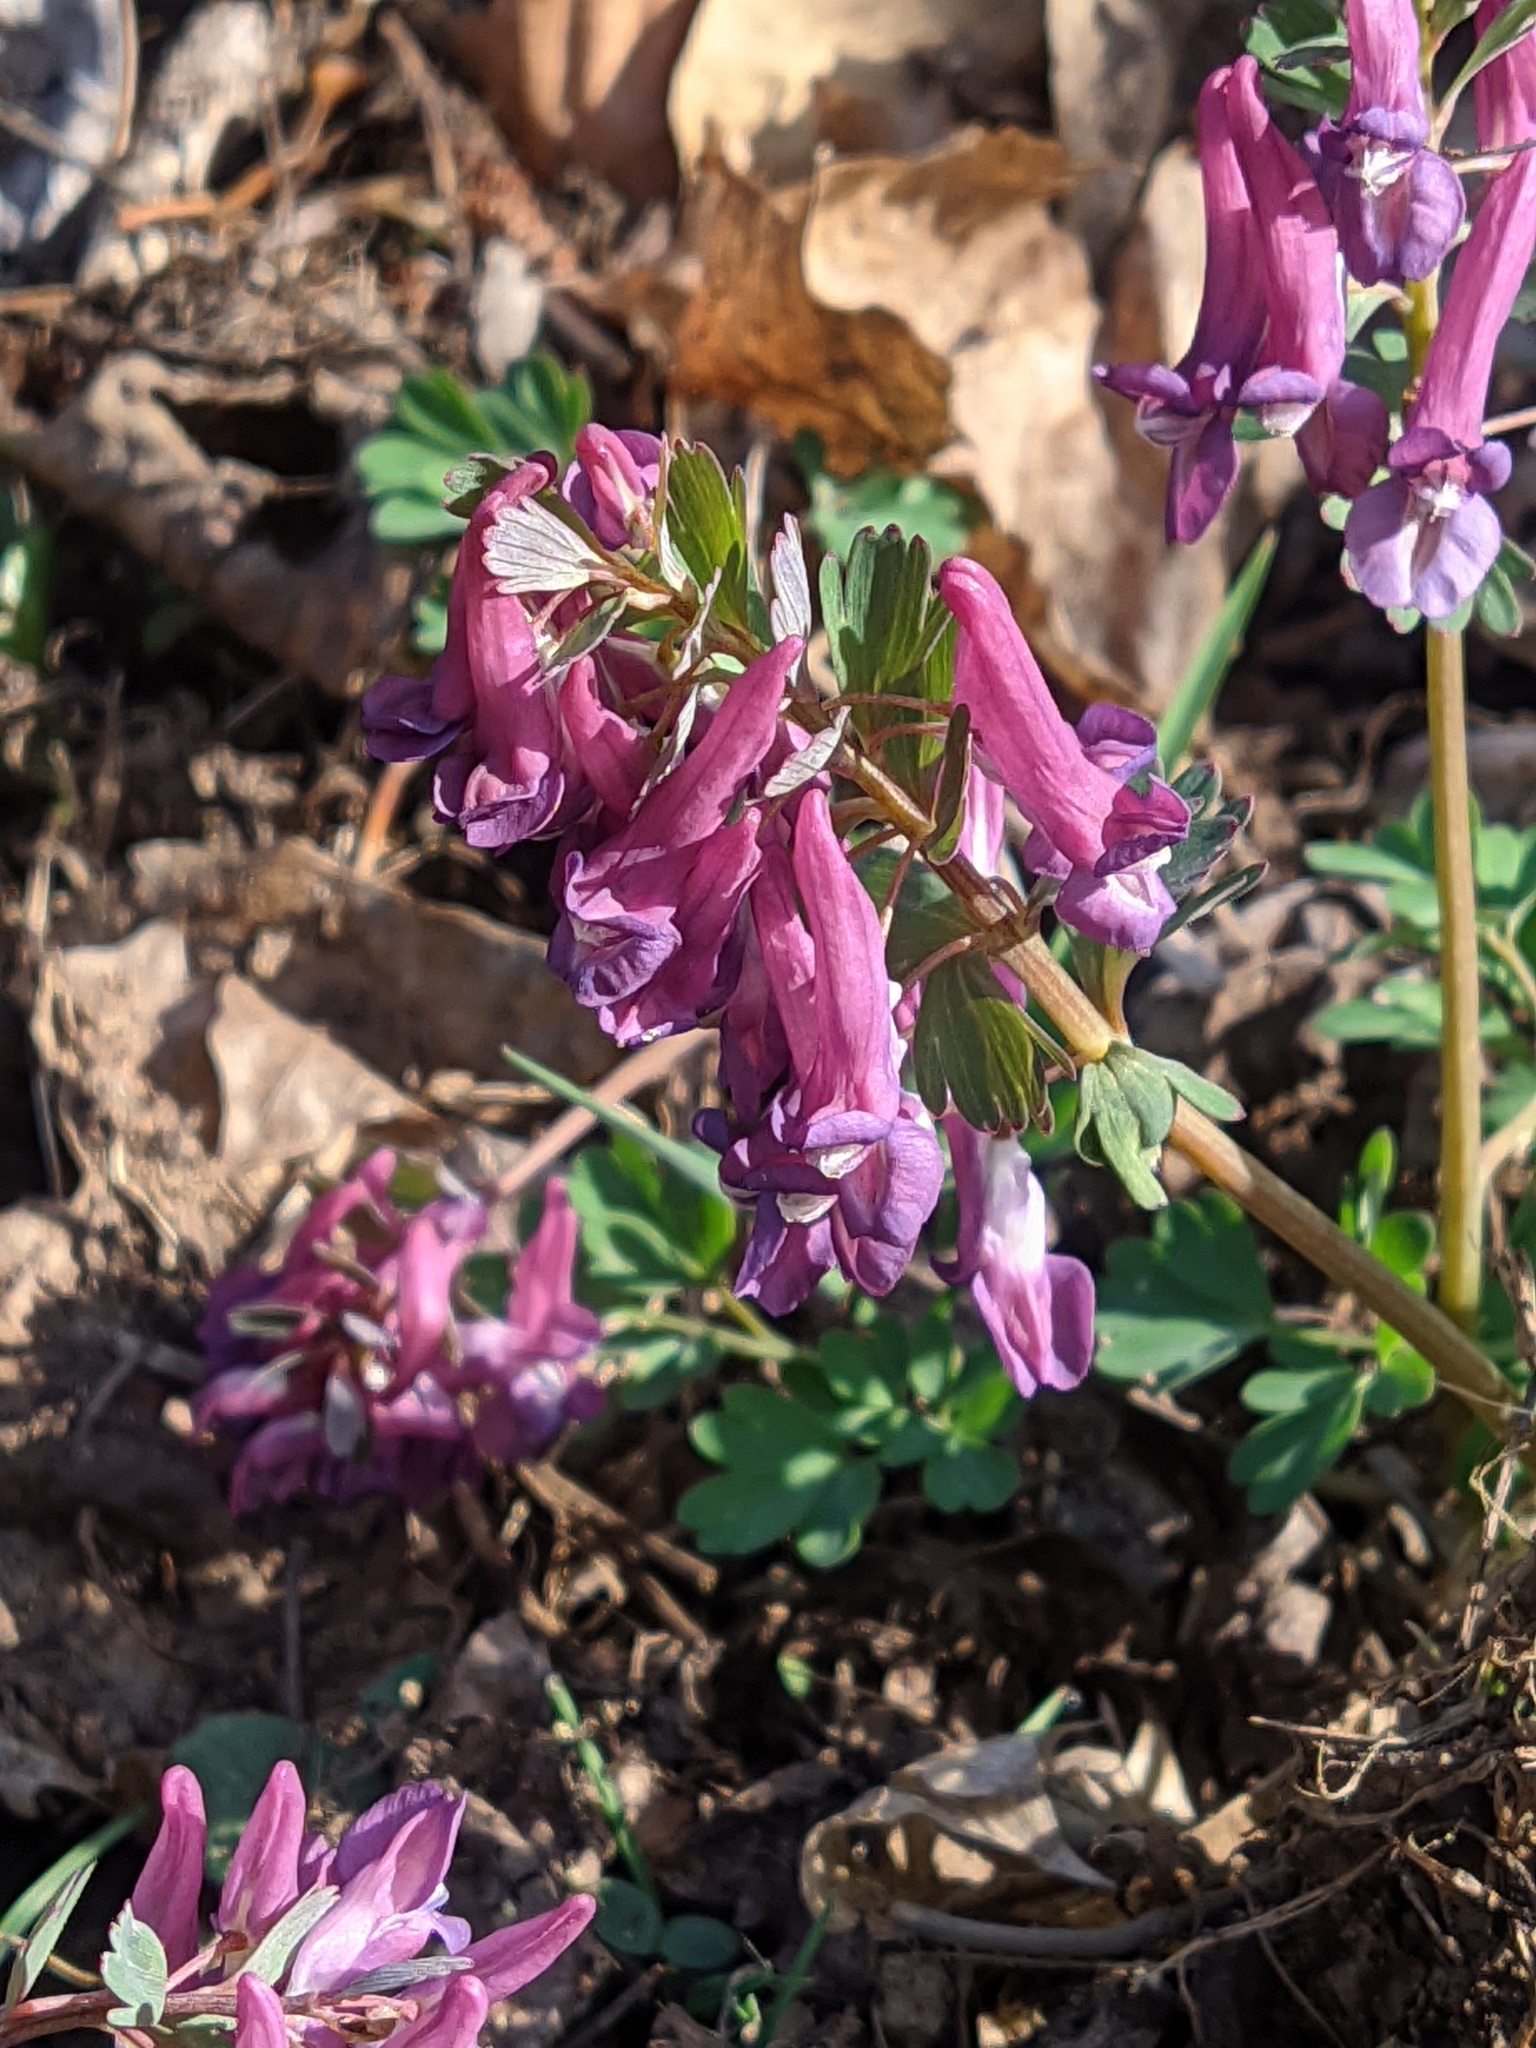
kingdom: Plantae
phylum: Tracheophyta
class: Magnoliopsida
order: Ranunculales
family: Papaveraceae
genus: Corydalis
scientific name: Corydalis solida
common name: Bird-in-a-bush
